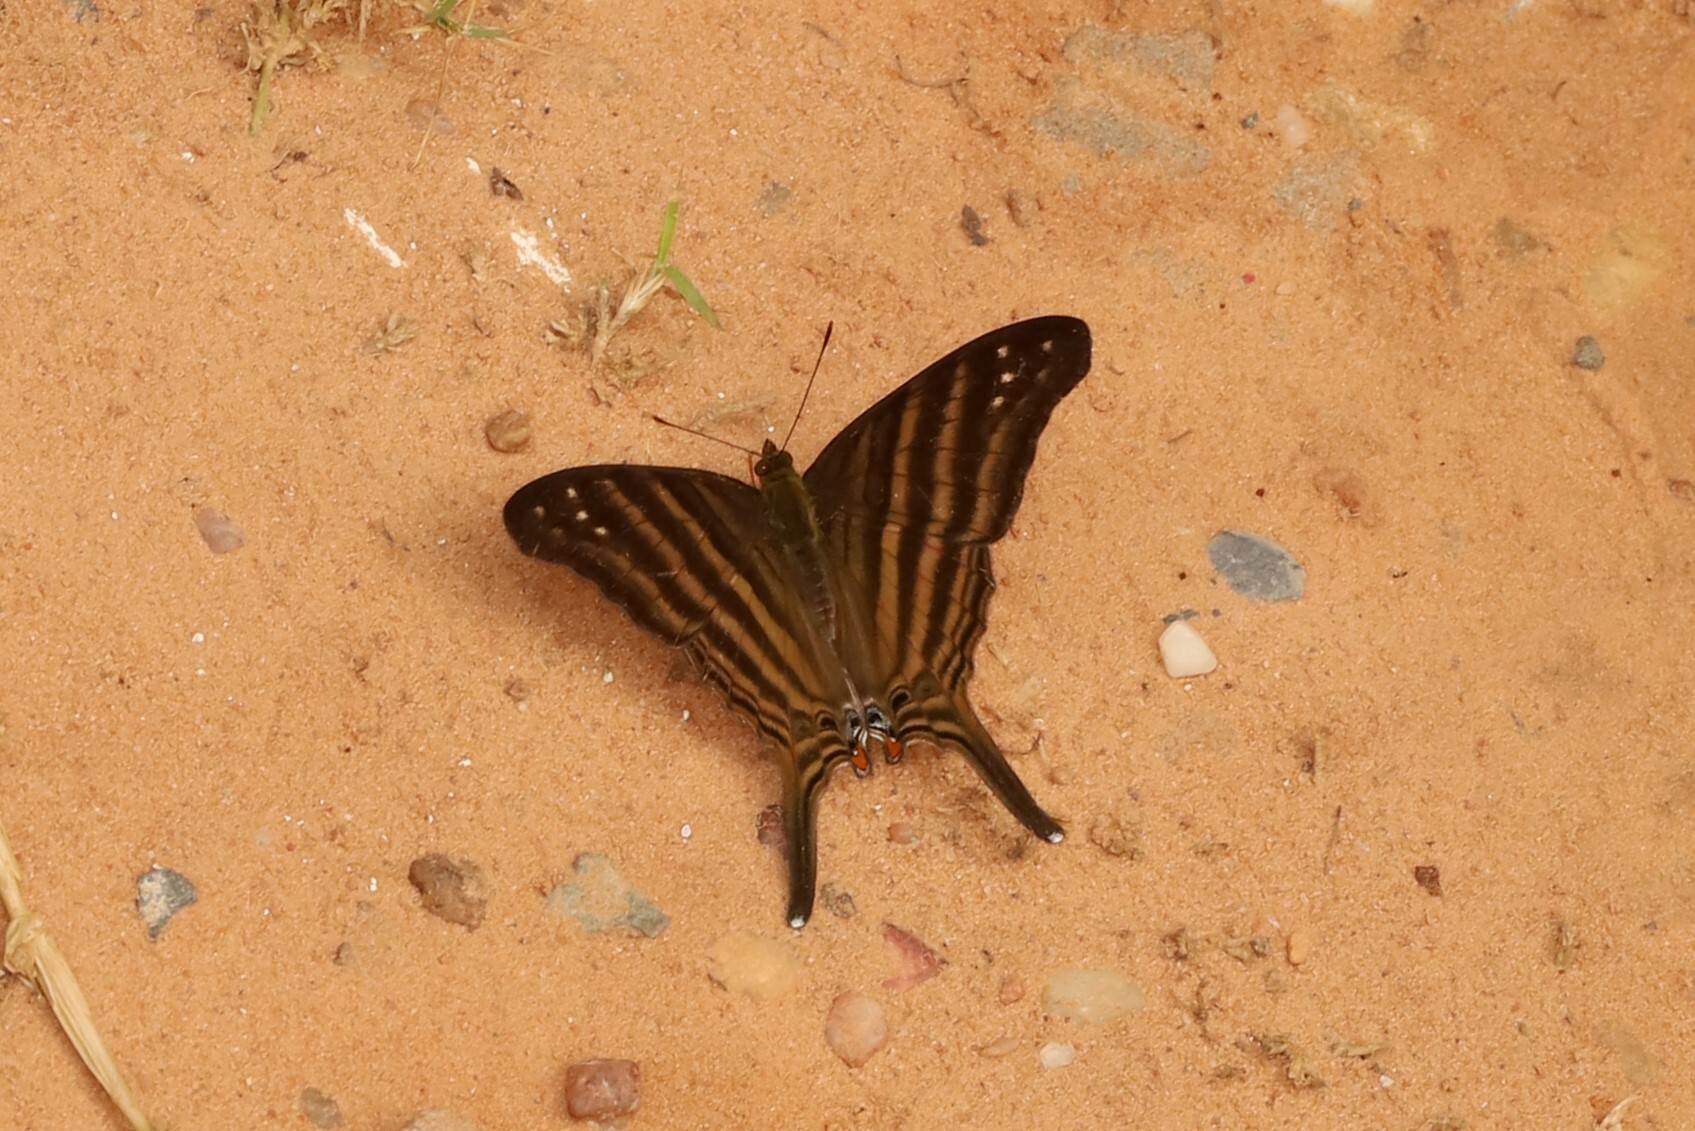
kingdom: Animalia
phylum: Arthropoda
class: Insecta
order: Lepidoptera
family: Nymphalidae
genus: Marpesia
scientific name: Marpesia chiron
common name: Many-banded daggerwing
